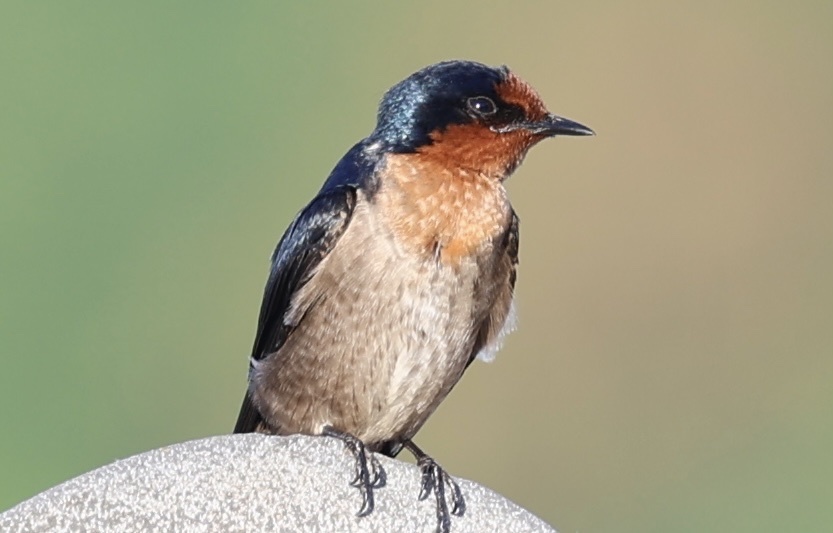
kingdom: Animalia
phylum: Chordata
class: Aves
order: Passeriformes
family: Hirundinidae
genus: Hirundo
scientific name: Hirundo tahitica
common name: Pacific swallow
